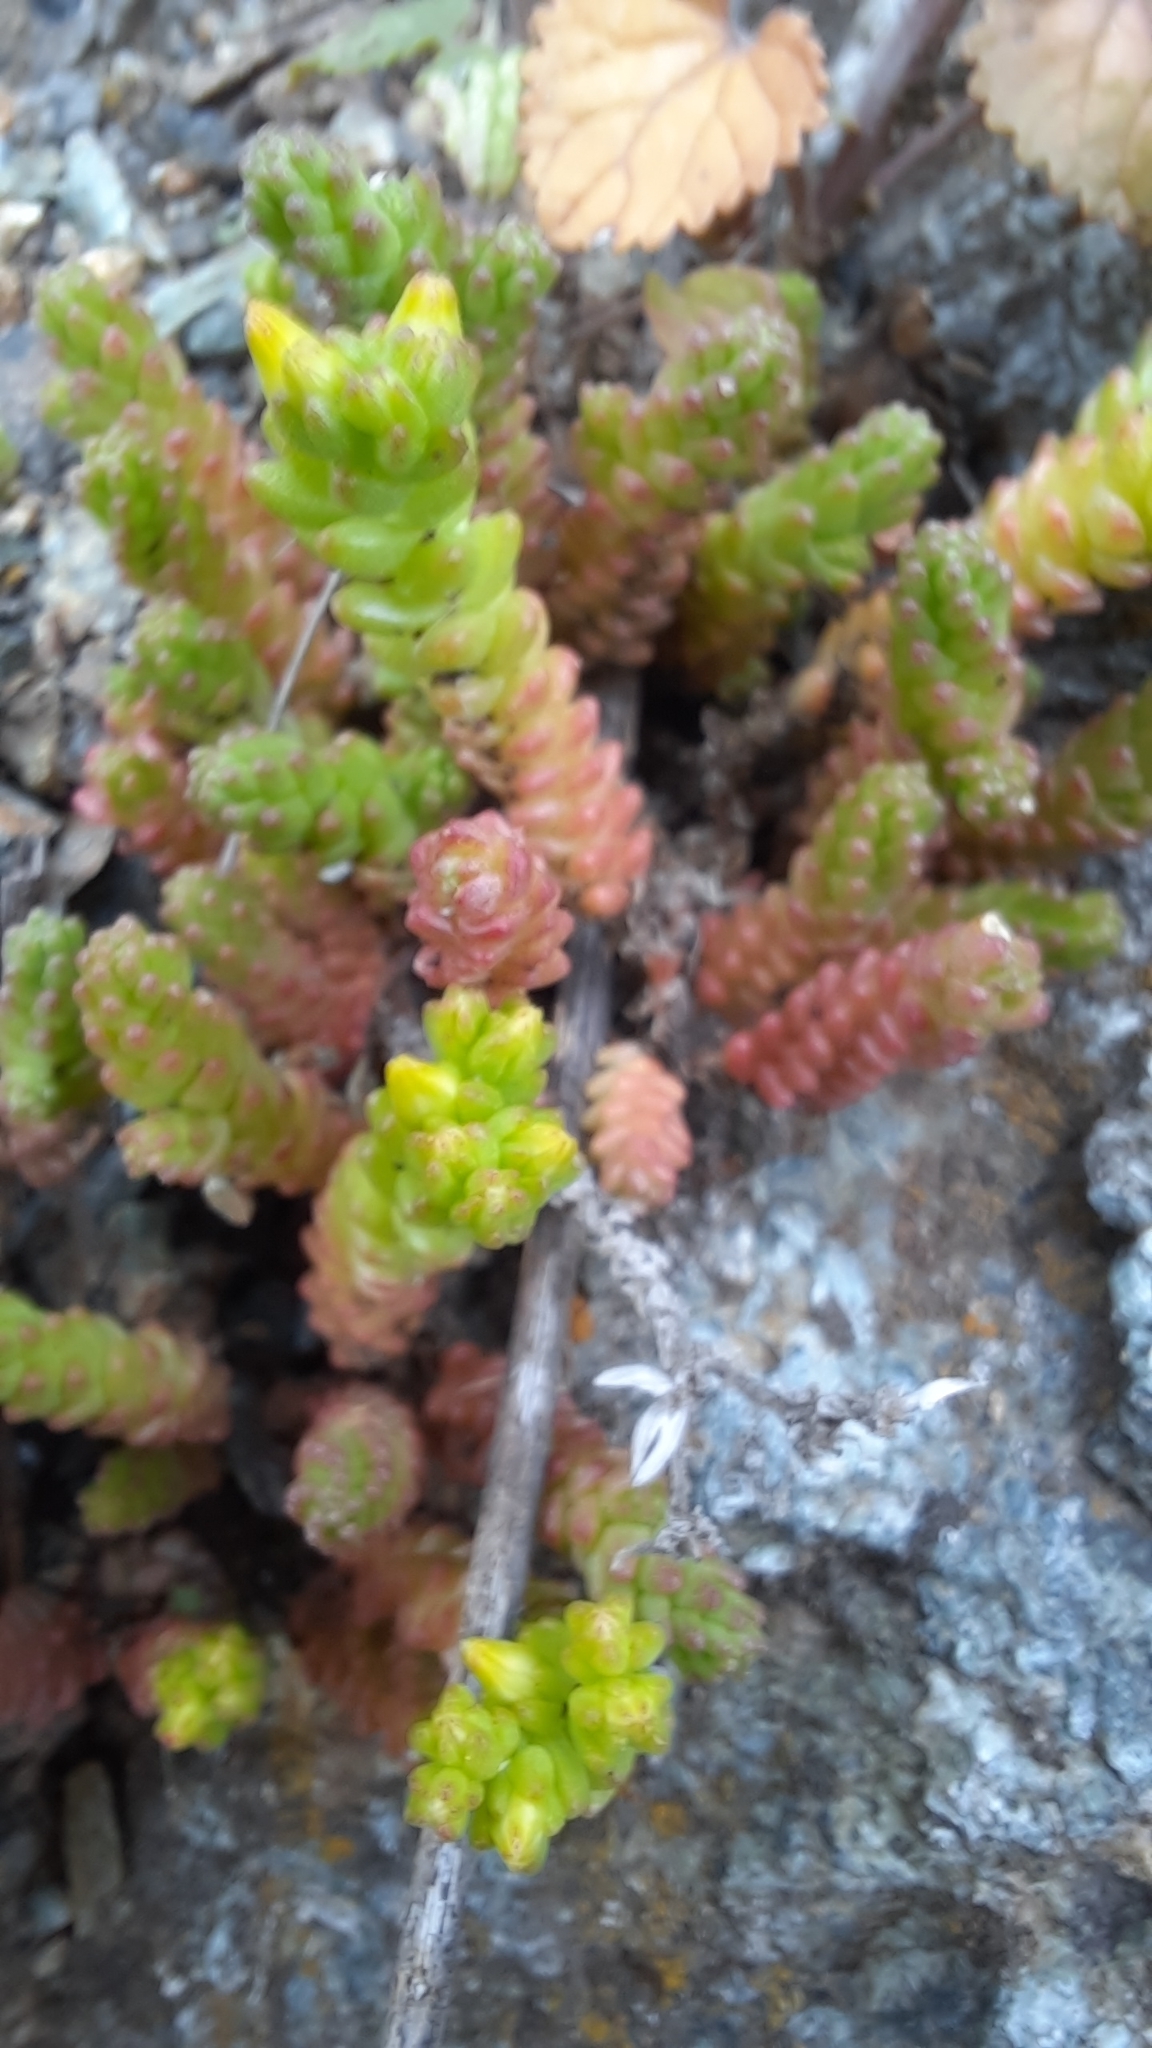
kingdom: Plantae
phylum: Tracheophyta
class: Magnoliopsida
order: Saxifragales
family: Crassulaceae
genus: Sedum
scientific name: Sedum acre
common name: Biting stonecrop
